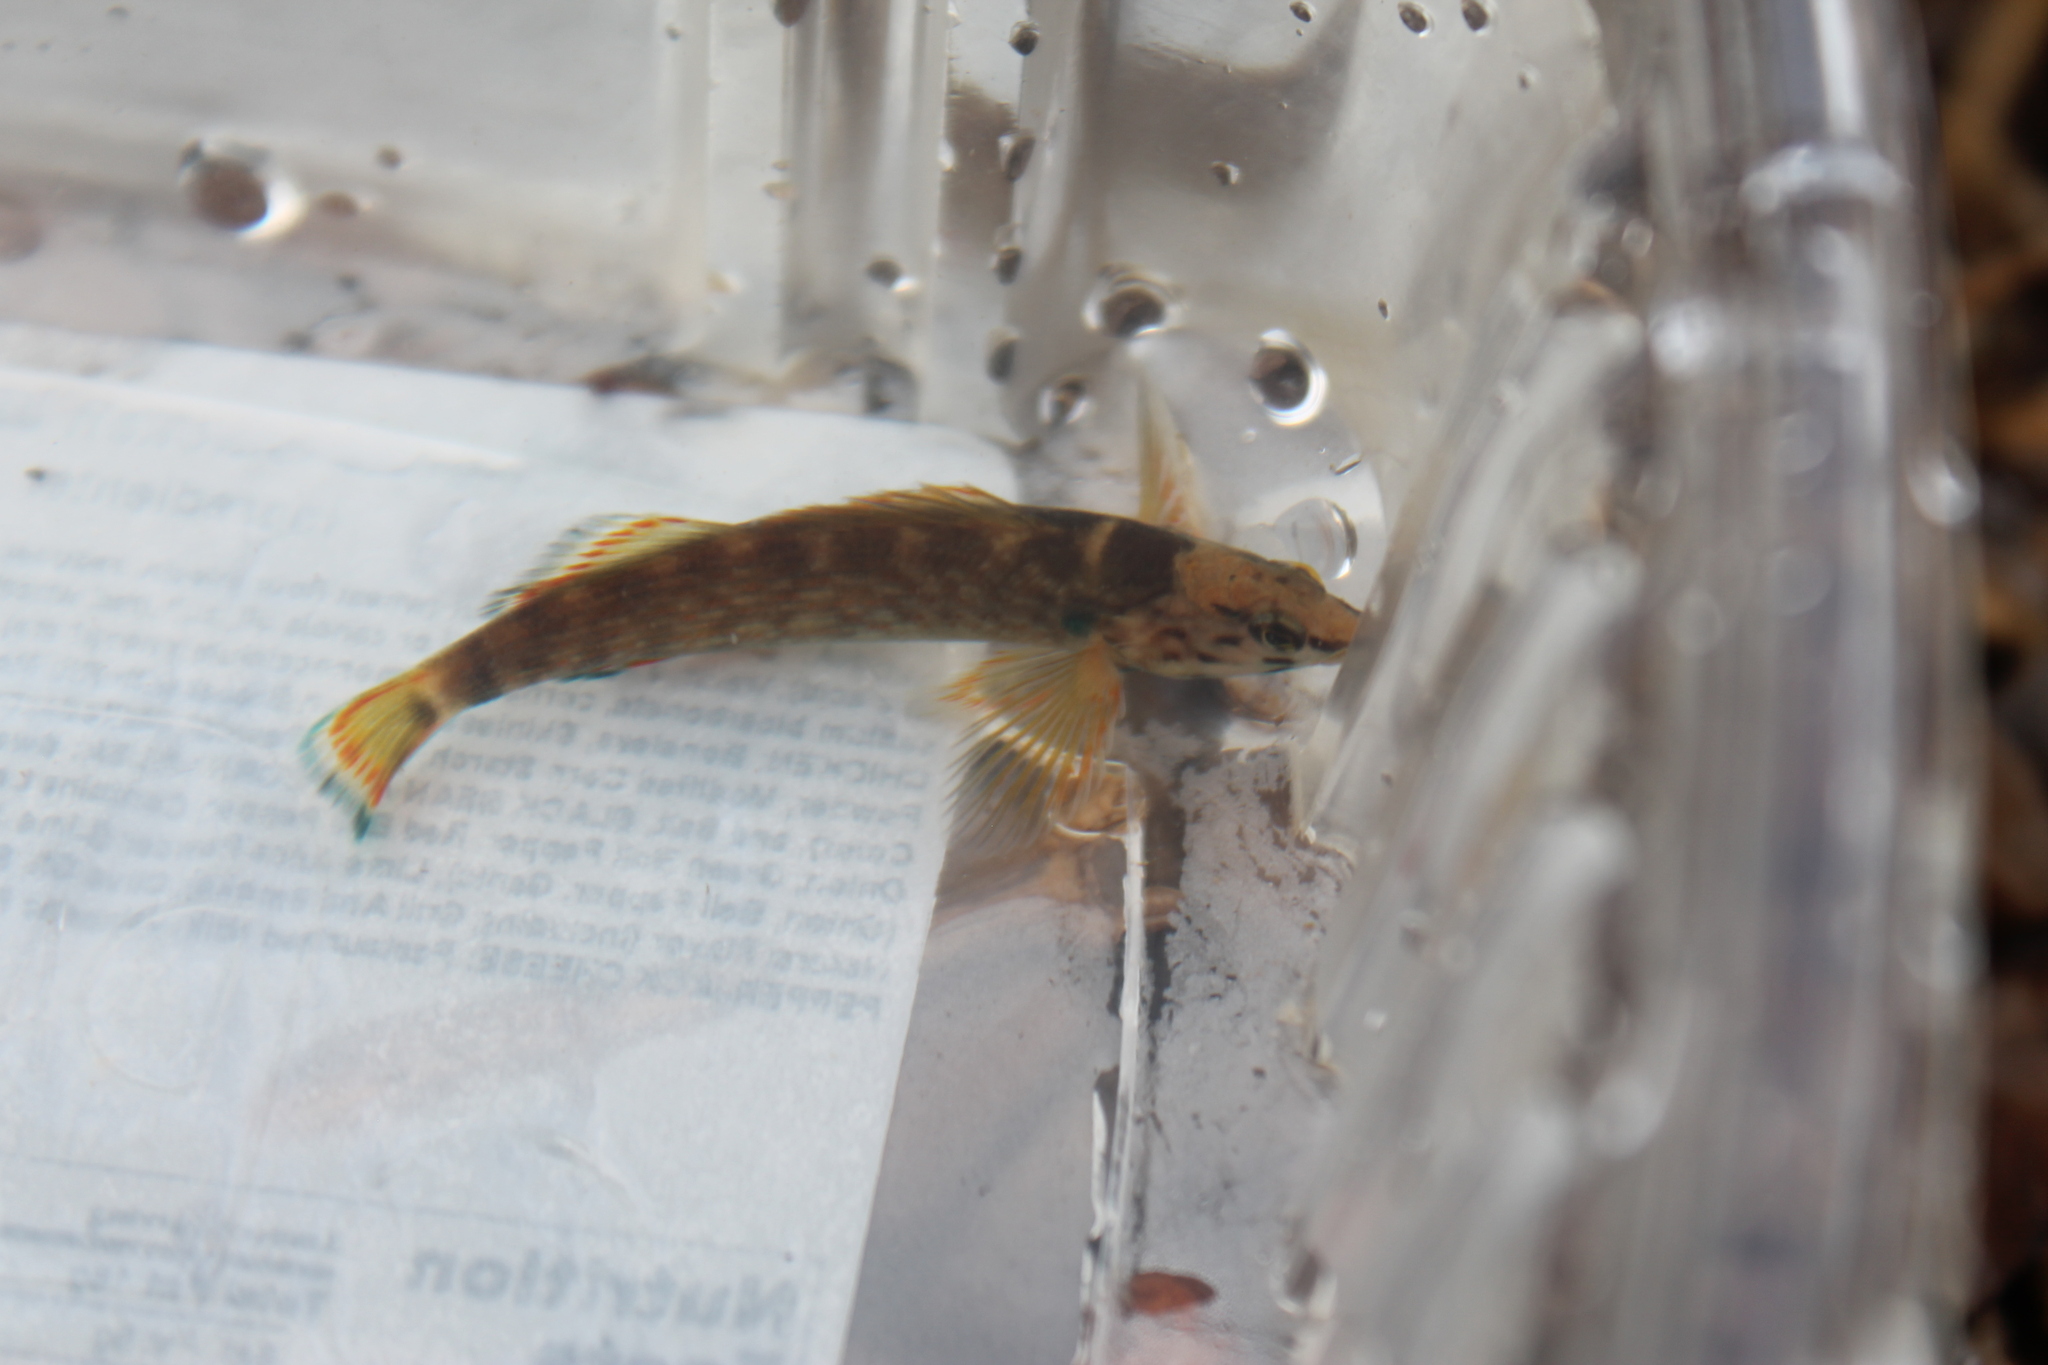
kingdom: Animalia
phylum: Chordata
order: Perciformes
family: Percidae
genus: Etheostoma
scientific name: Etheostoma rufilineatum
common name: Redline darter
